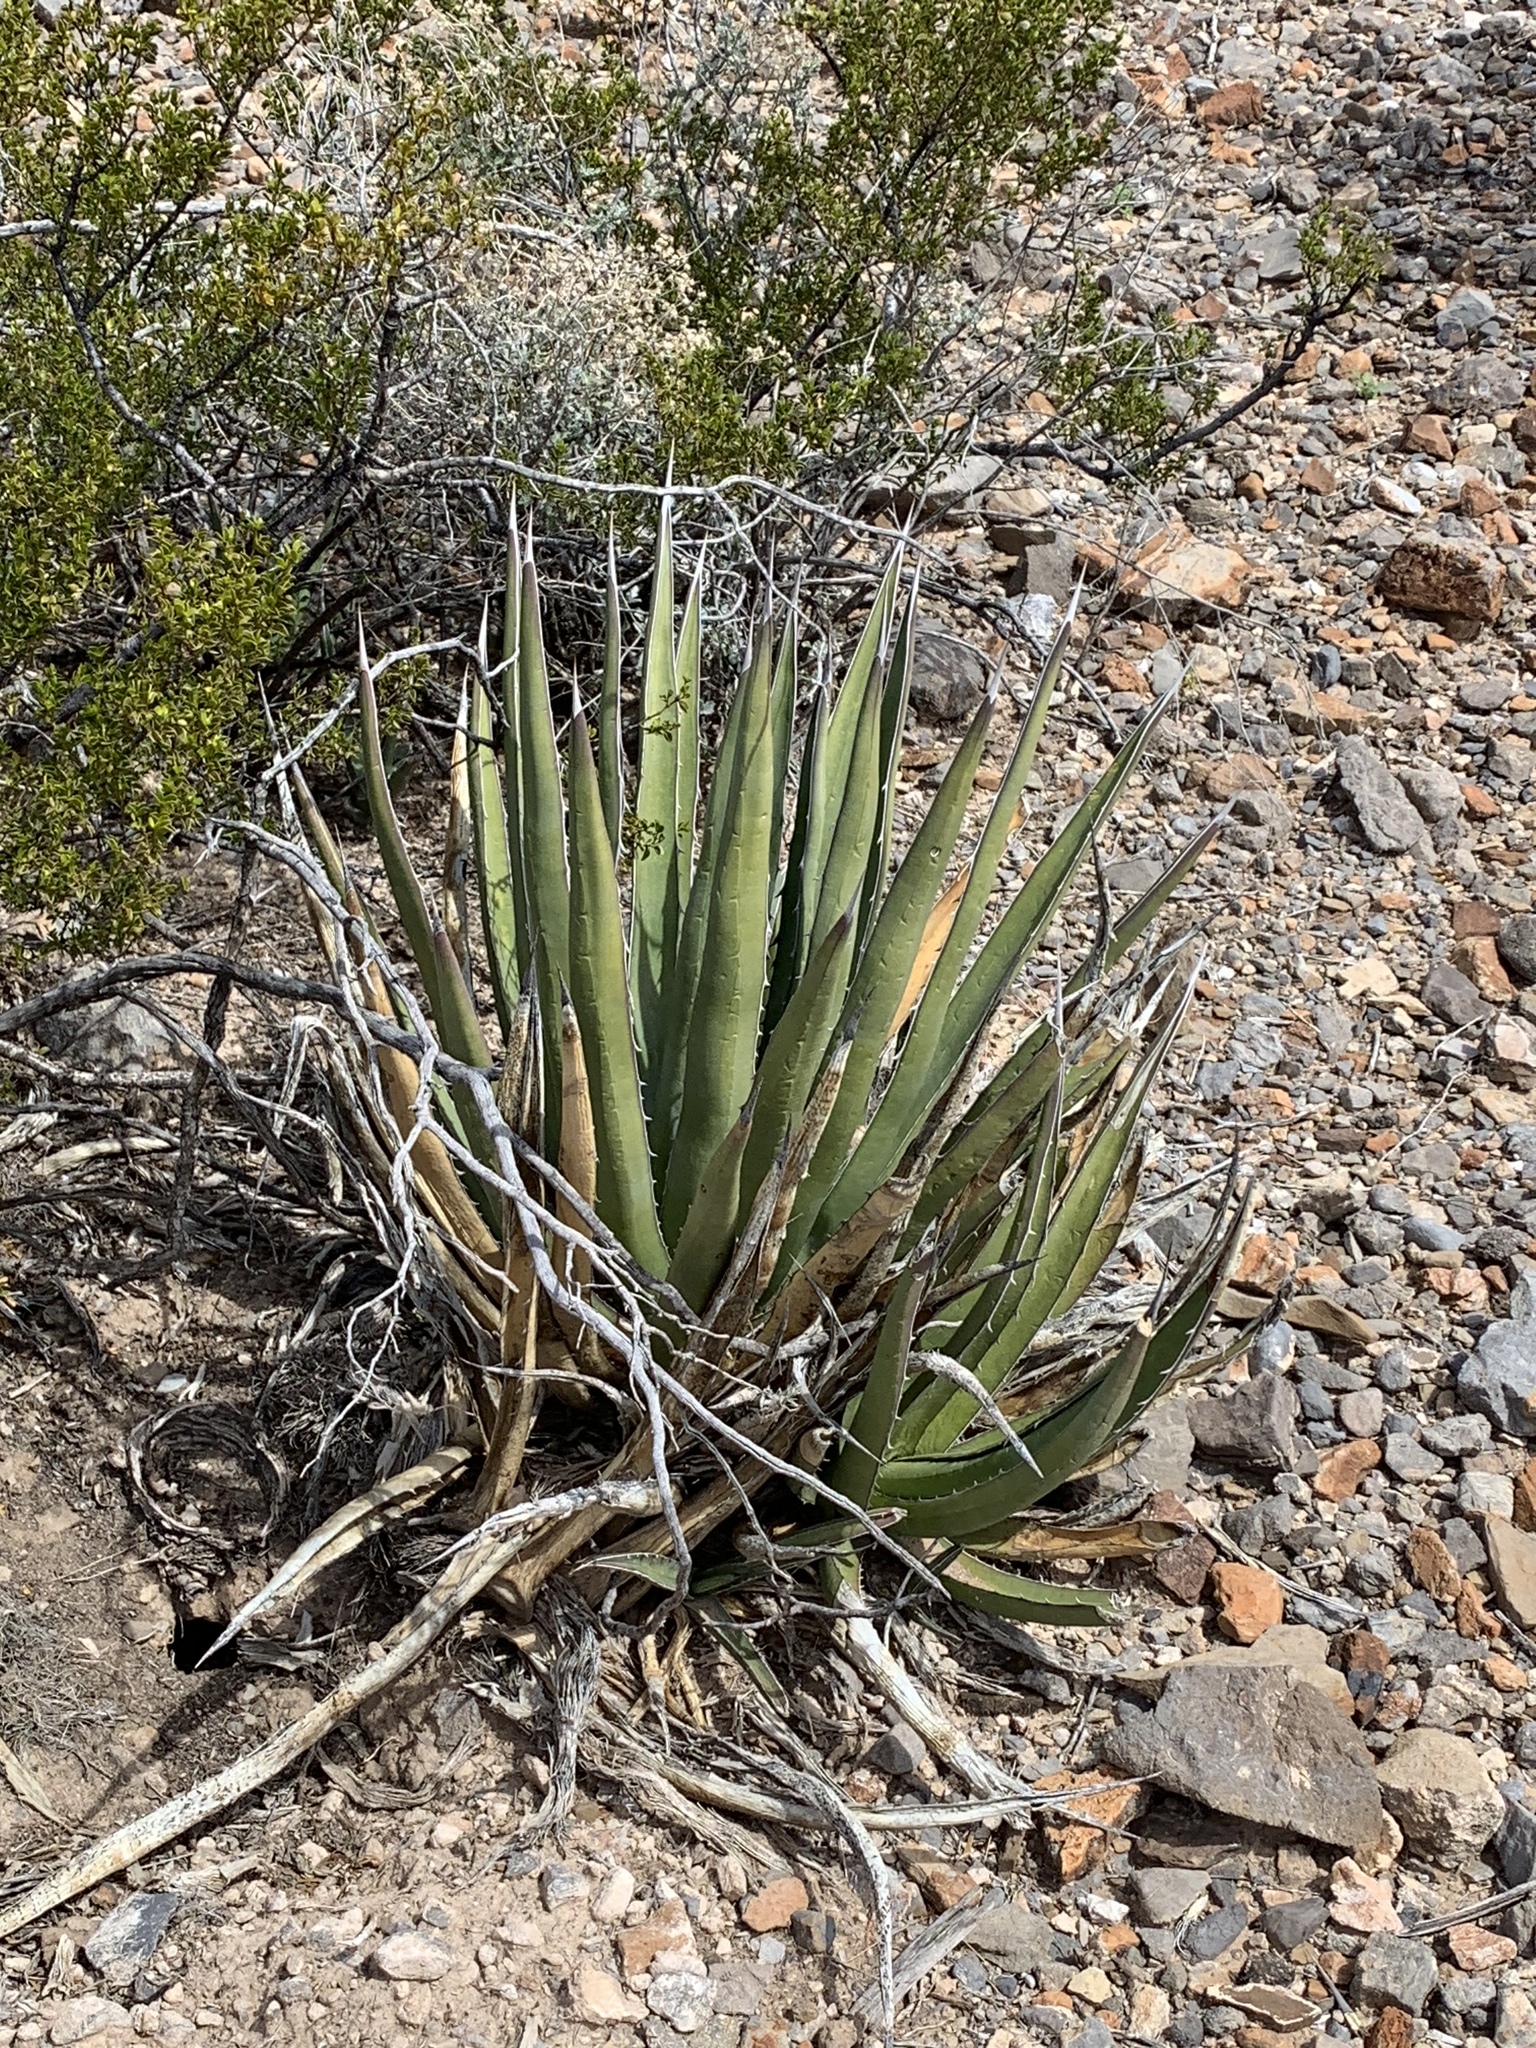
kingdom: Plantae
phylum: Tracheophyta
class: Liliopsida
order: Asparagales
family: Asparagaceae
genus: Agave
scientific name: Agave lechuguilla
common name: Lecheguilla agave
